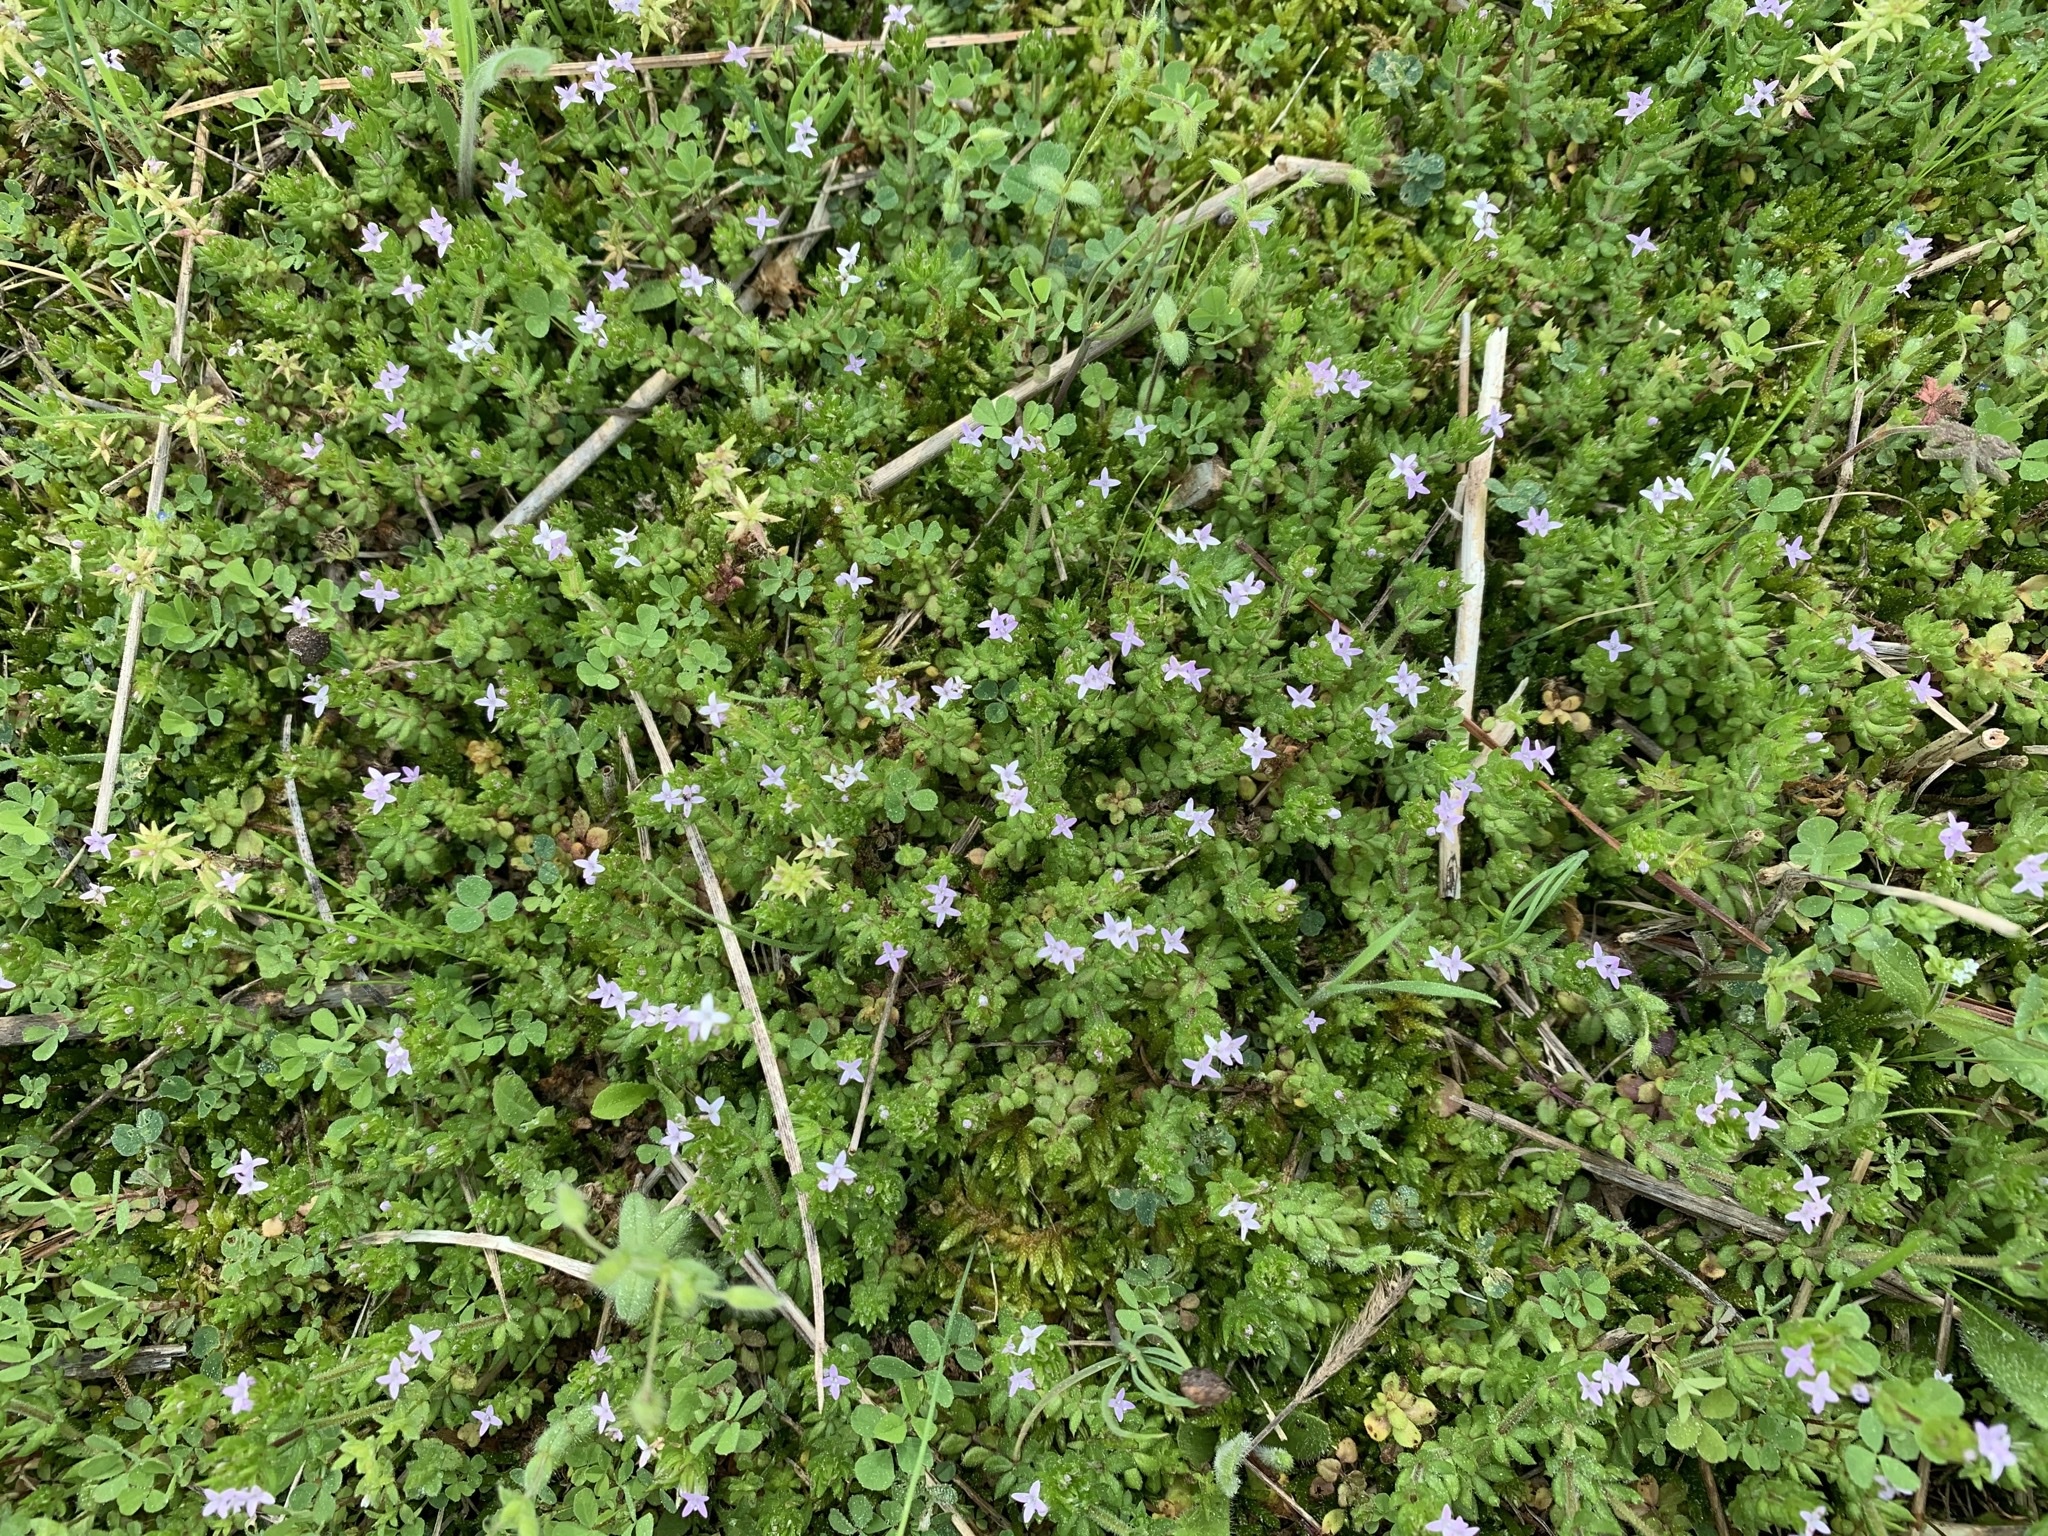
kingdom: Plantae
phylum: Tracheophyta
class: Magnoliopsida
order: Gentianales
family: Rubiaceae
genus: Sherardia
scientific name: Sherardia arvensis
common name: Field madder
